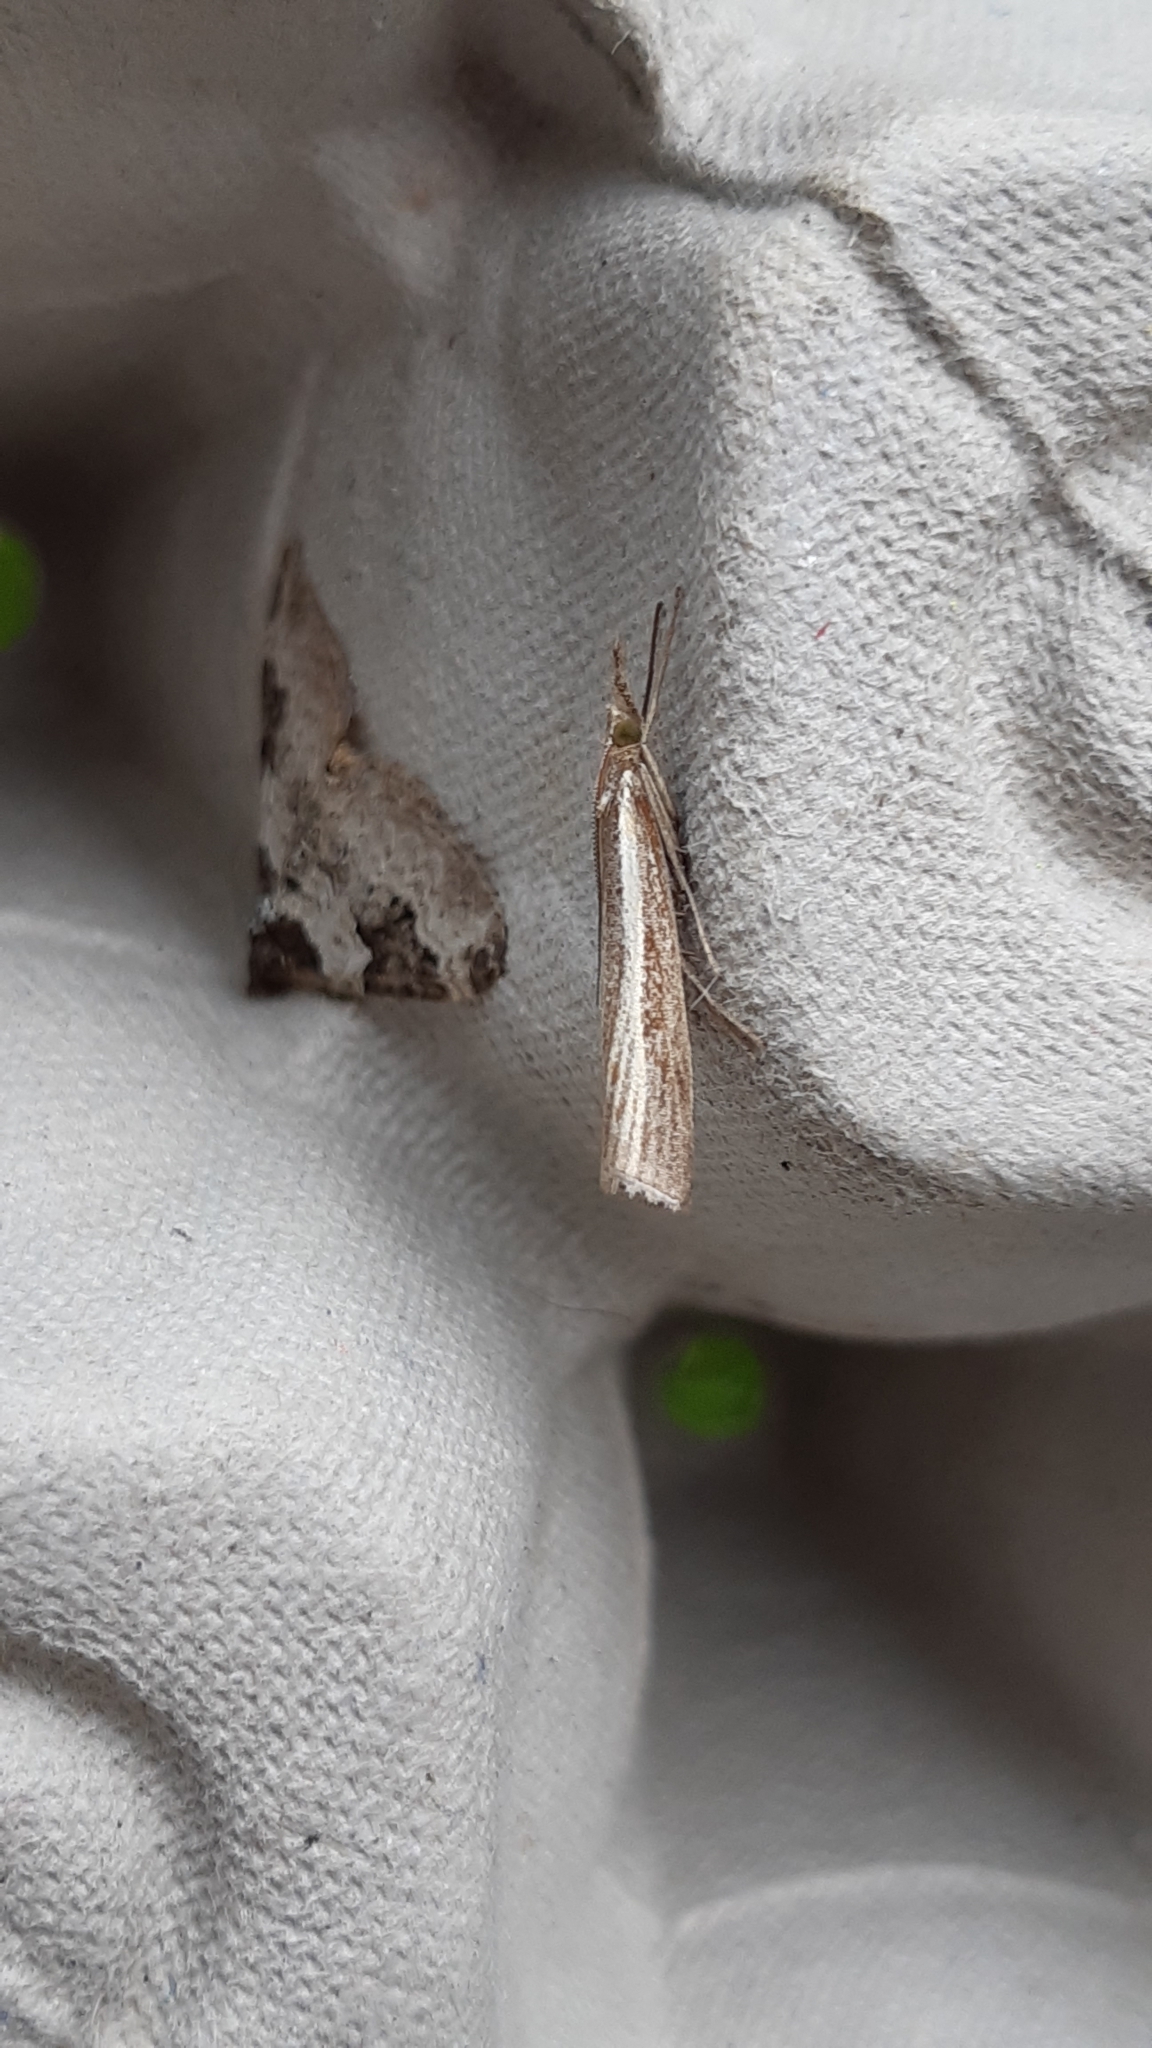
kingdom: Animalia
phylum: Arthropoda
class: Insecta
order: Lepidoptera
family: Crambidae
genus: Agriphila
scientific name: Agriphila tristellus
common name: Common grass-veneer
